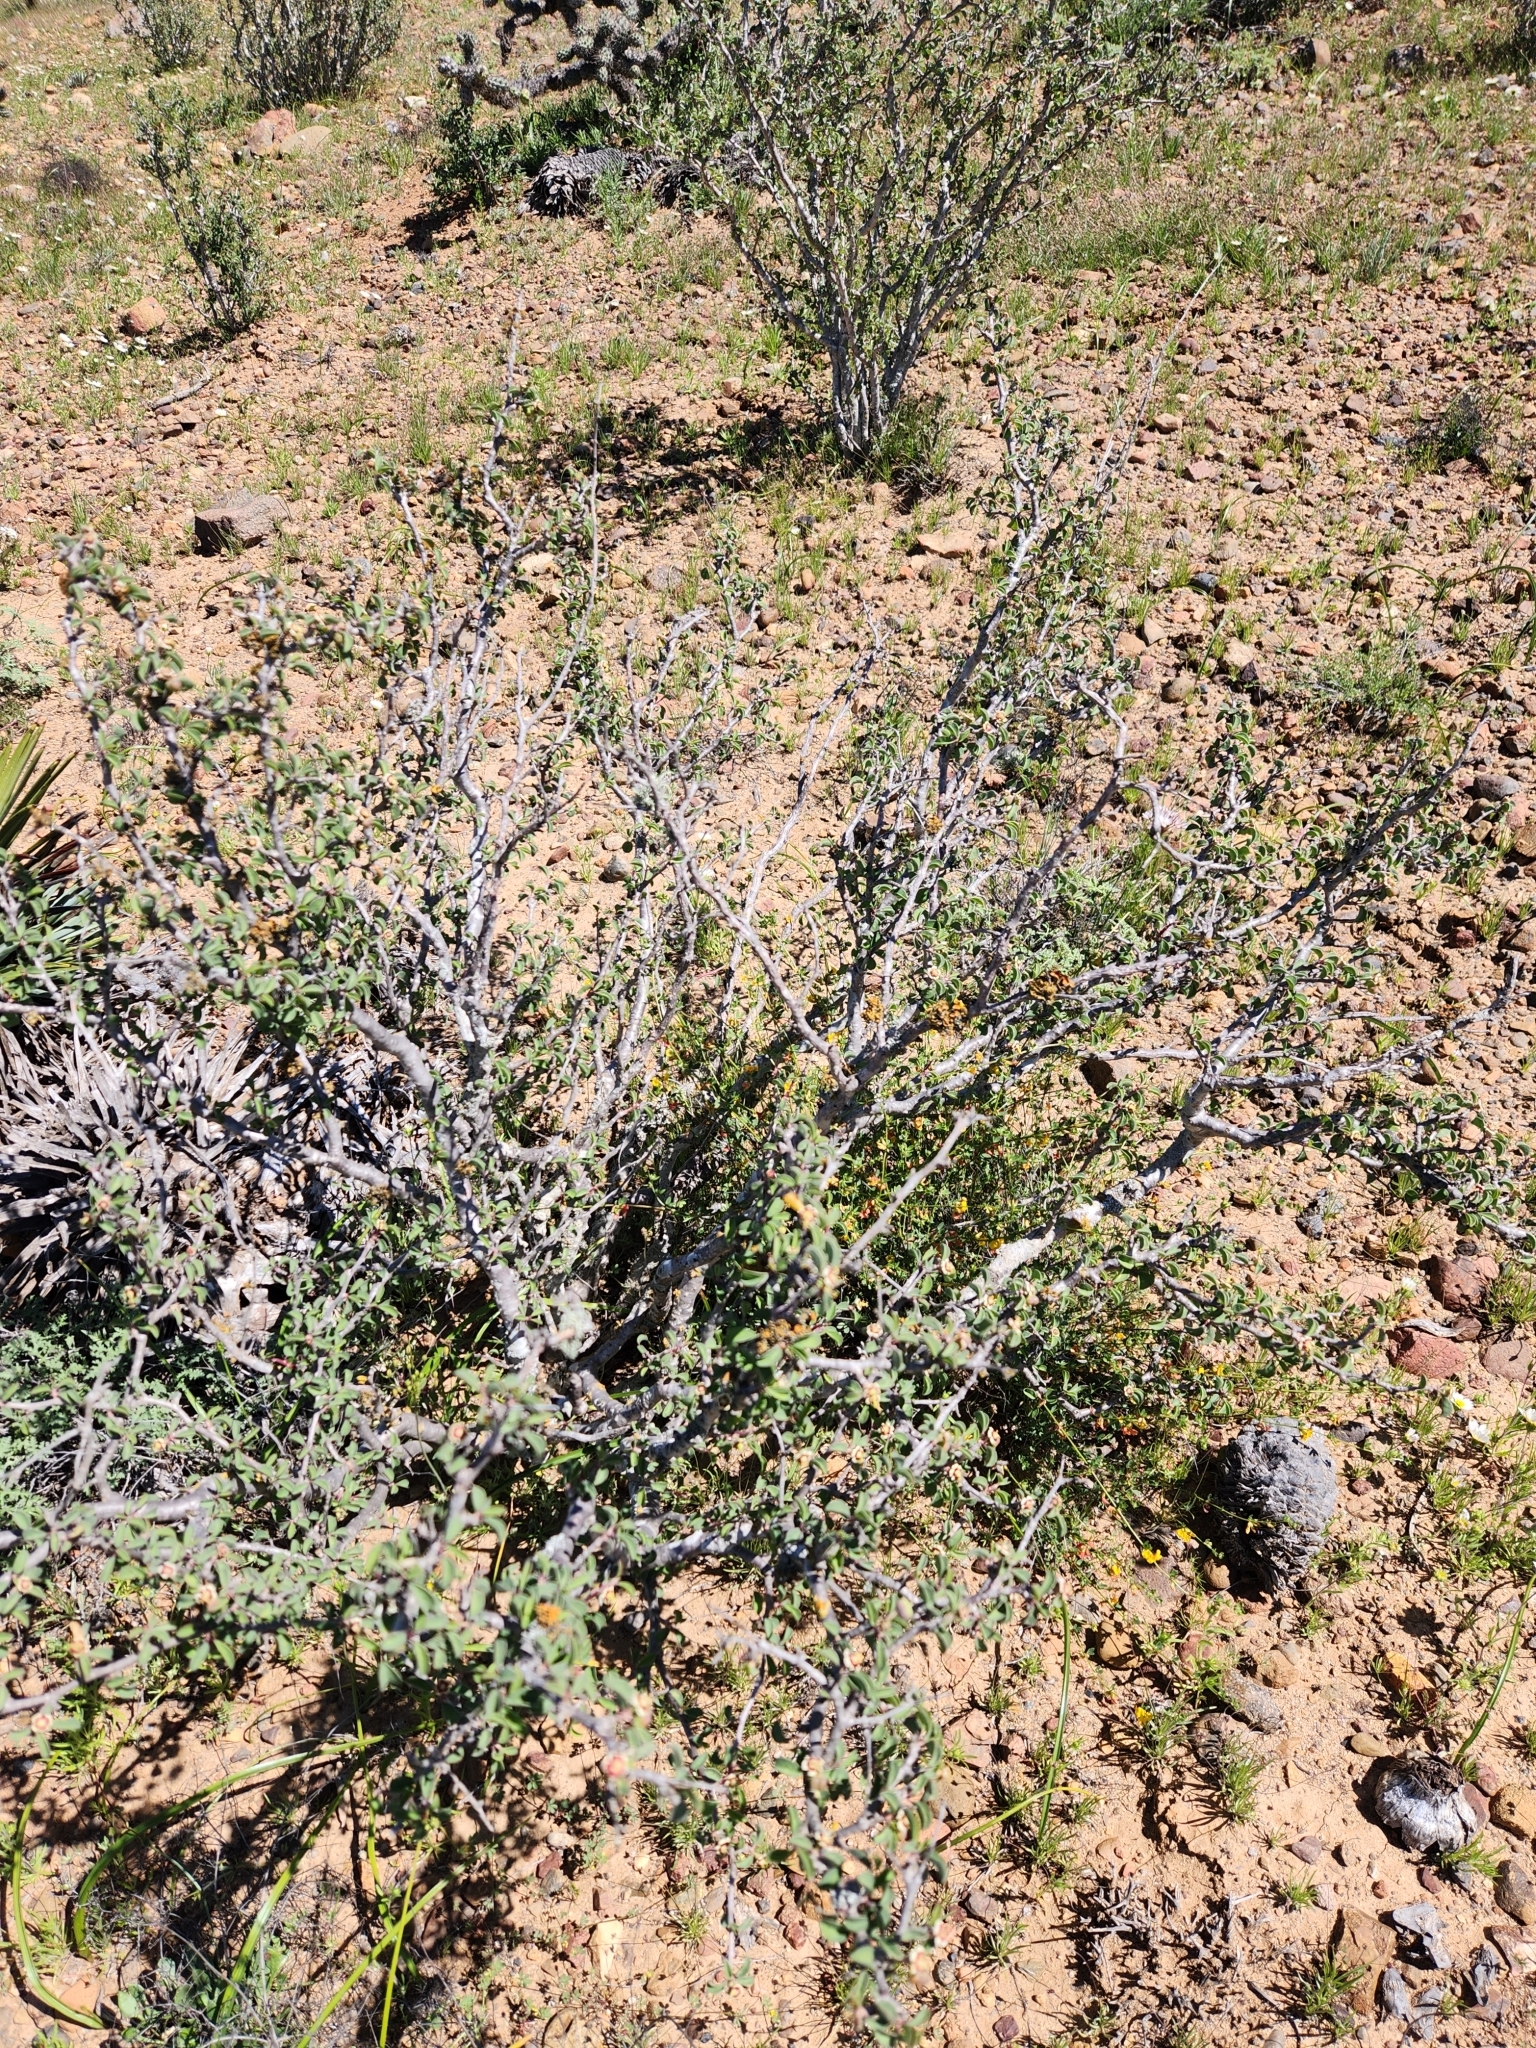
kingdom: Plantae
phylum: Tracheophyta
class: Magnoliopsida
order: Malpighiales
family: Euphorbiaceae
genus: Euphorbia
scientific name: Euphorbia misera
